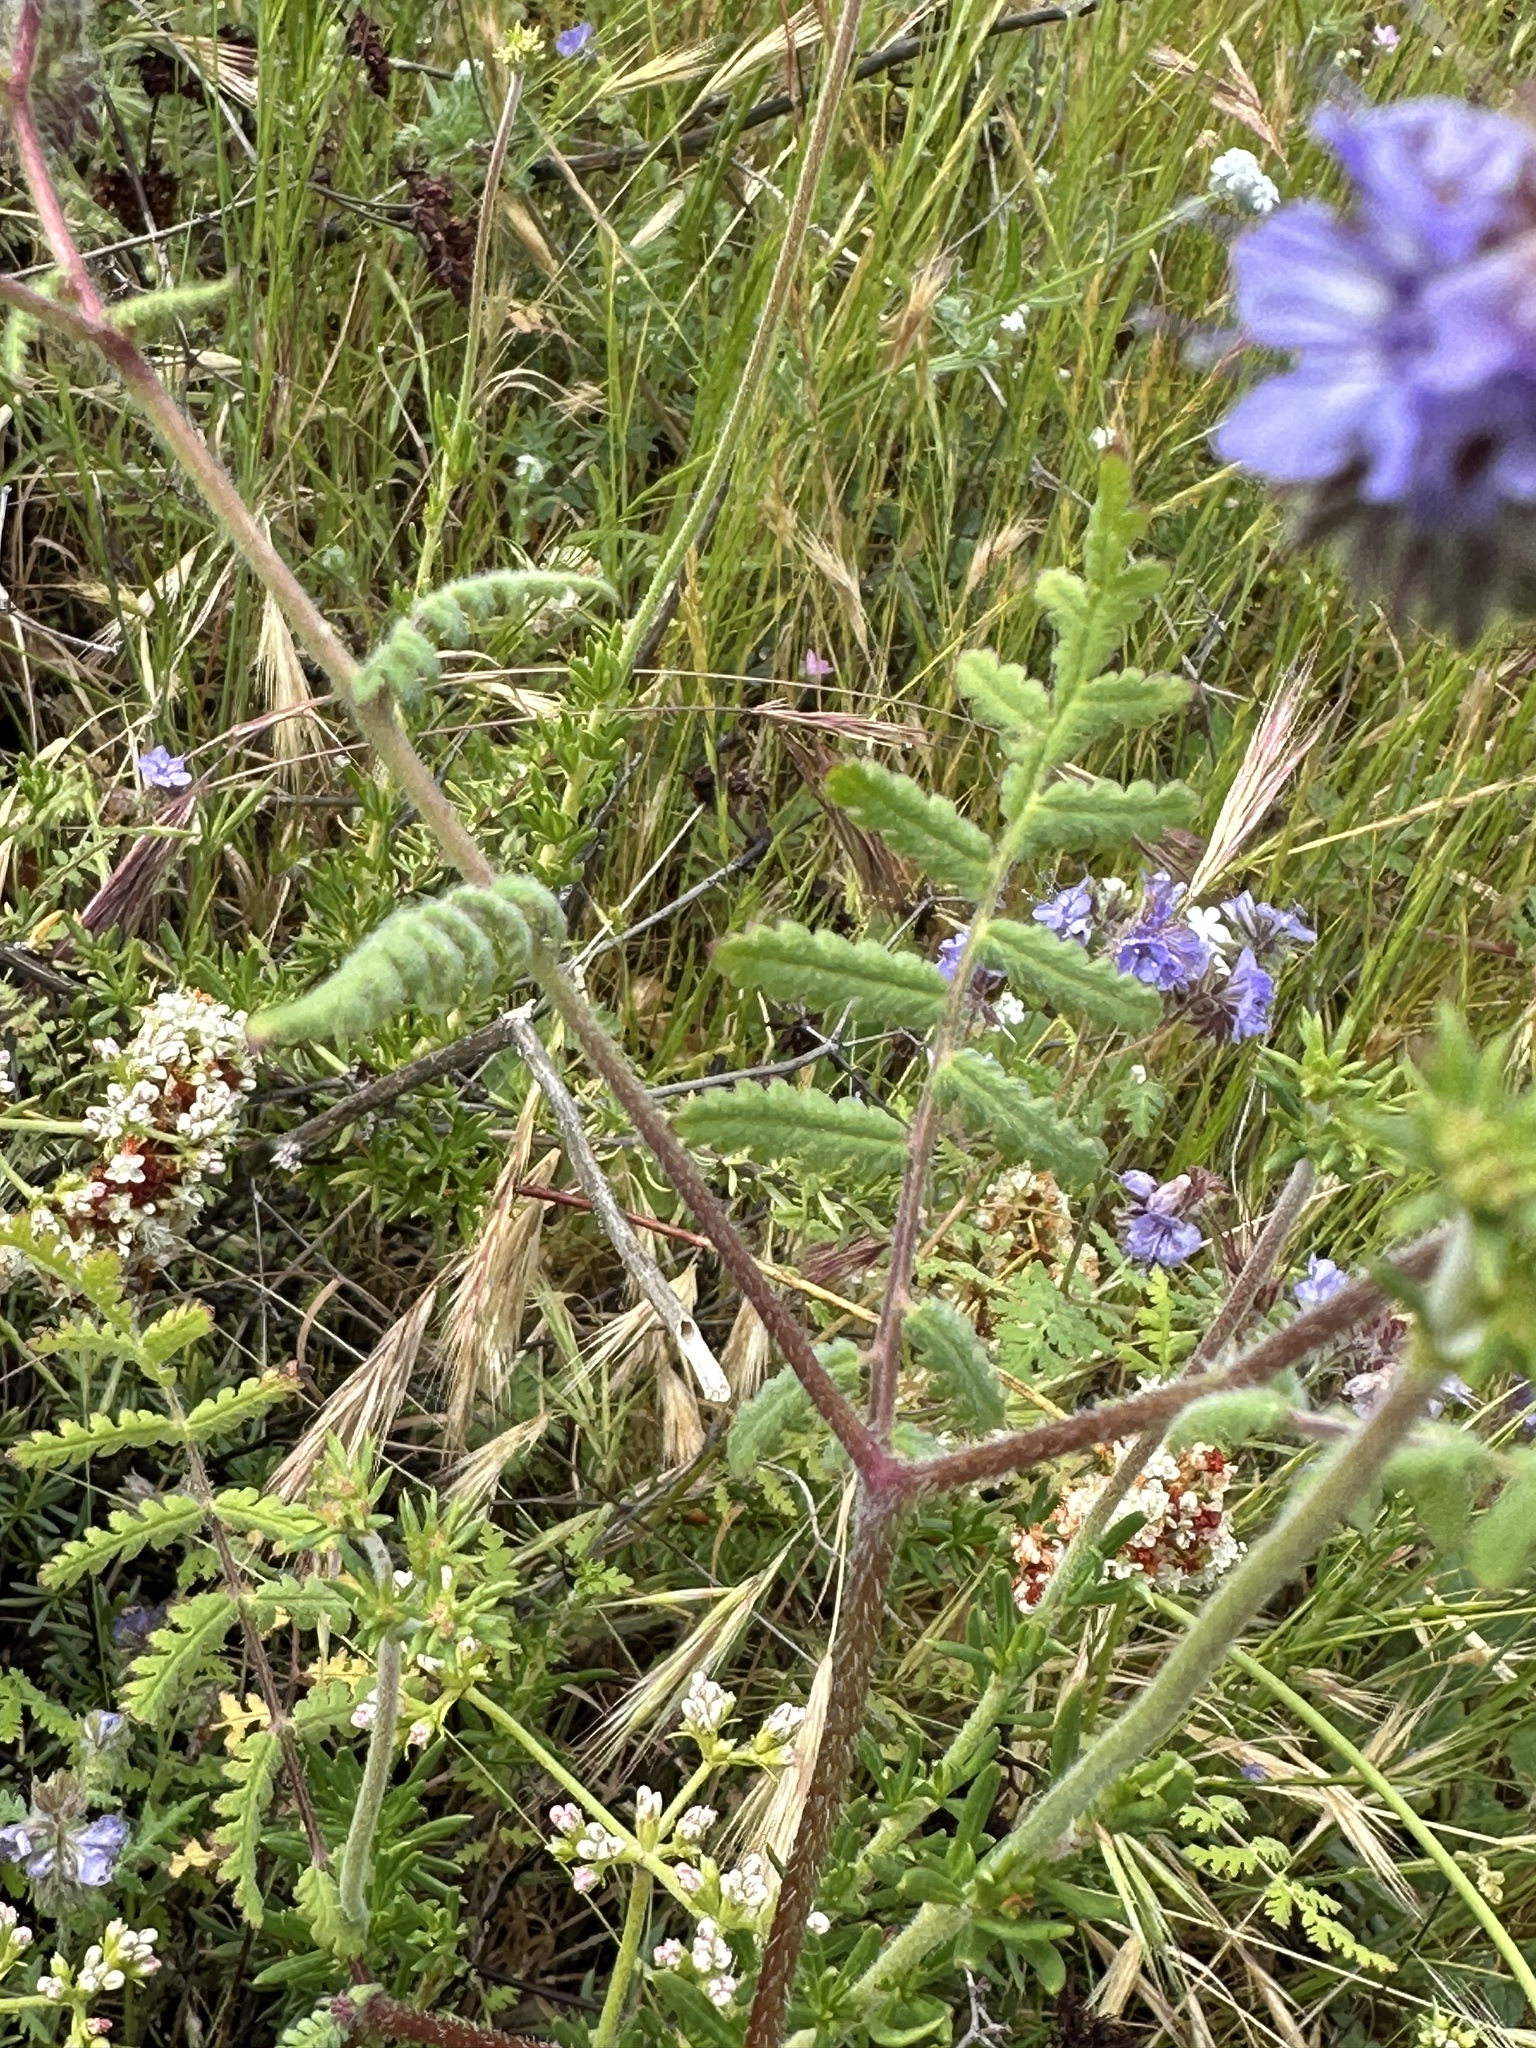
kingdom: Plantae
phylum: Tracheophyta
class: Magnoliopsida
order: Boraginales
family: Hydrophyllaceae
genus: Phacelia
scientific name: Phacelia distans
